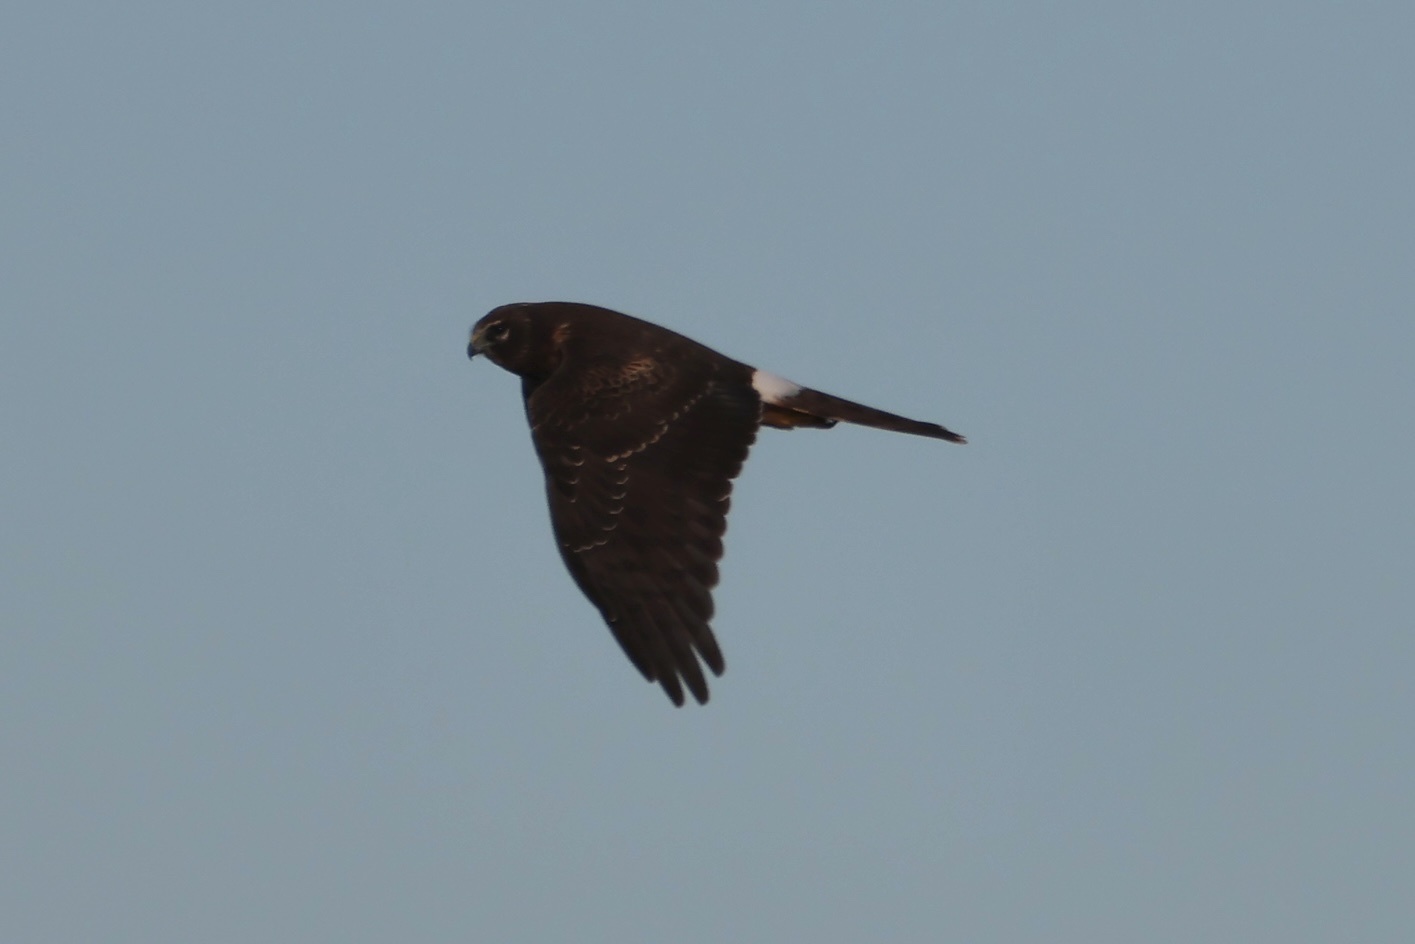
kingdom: Animalia
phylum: Chordata
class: Aves
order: Accipitriformes
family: Accipitridae
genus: Circus
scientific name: Circus cyaneus
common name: Hen harrier
